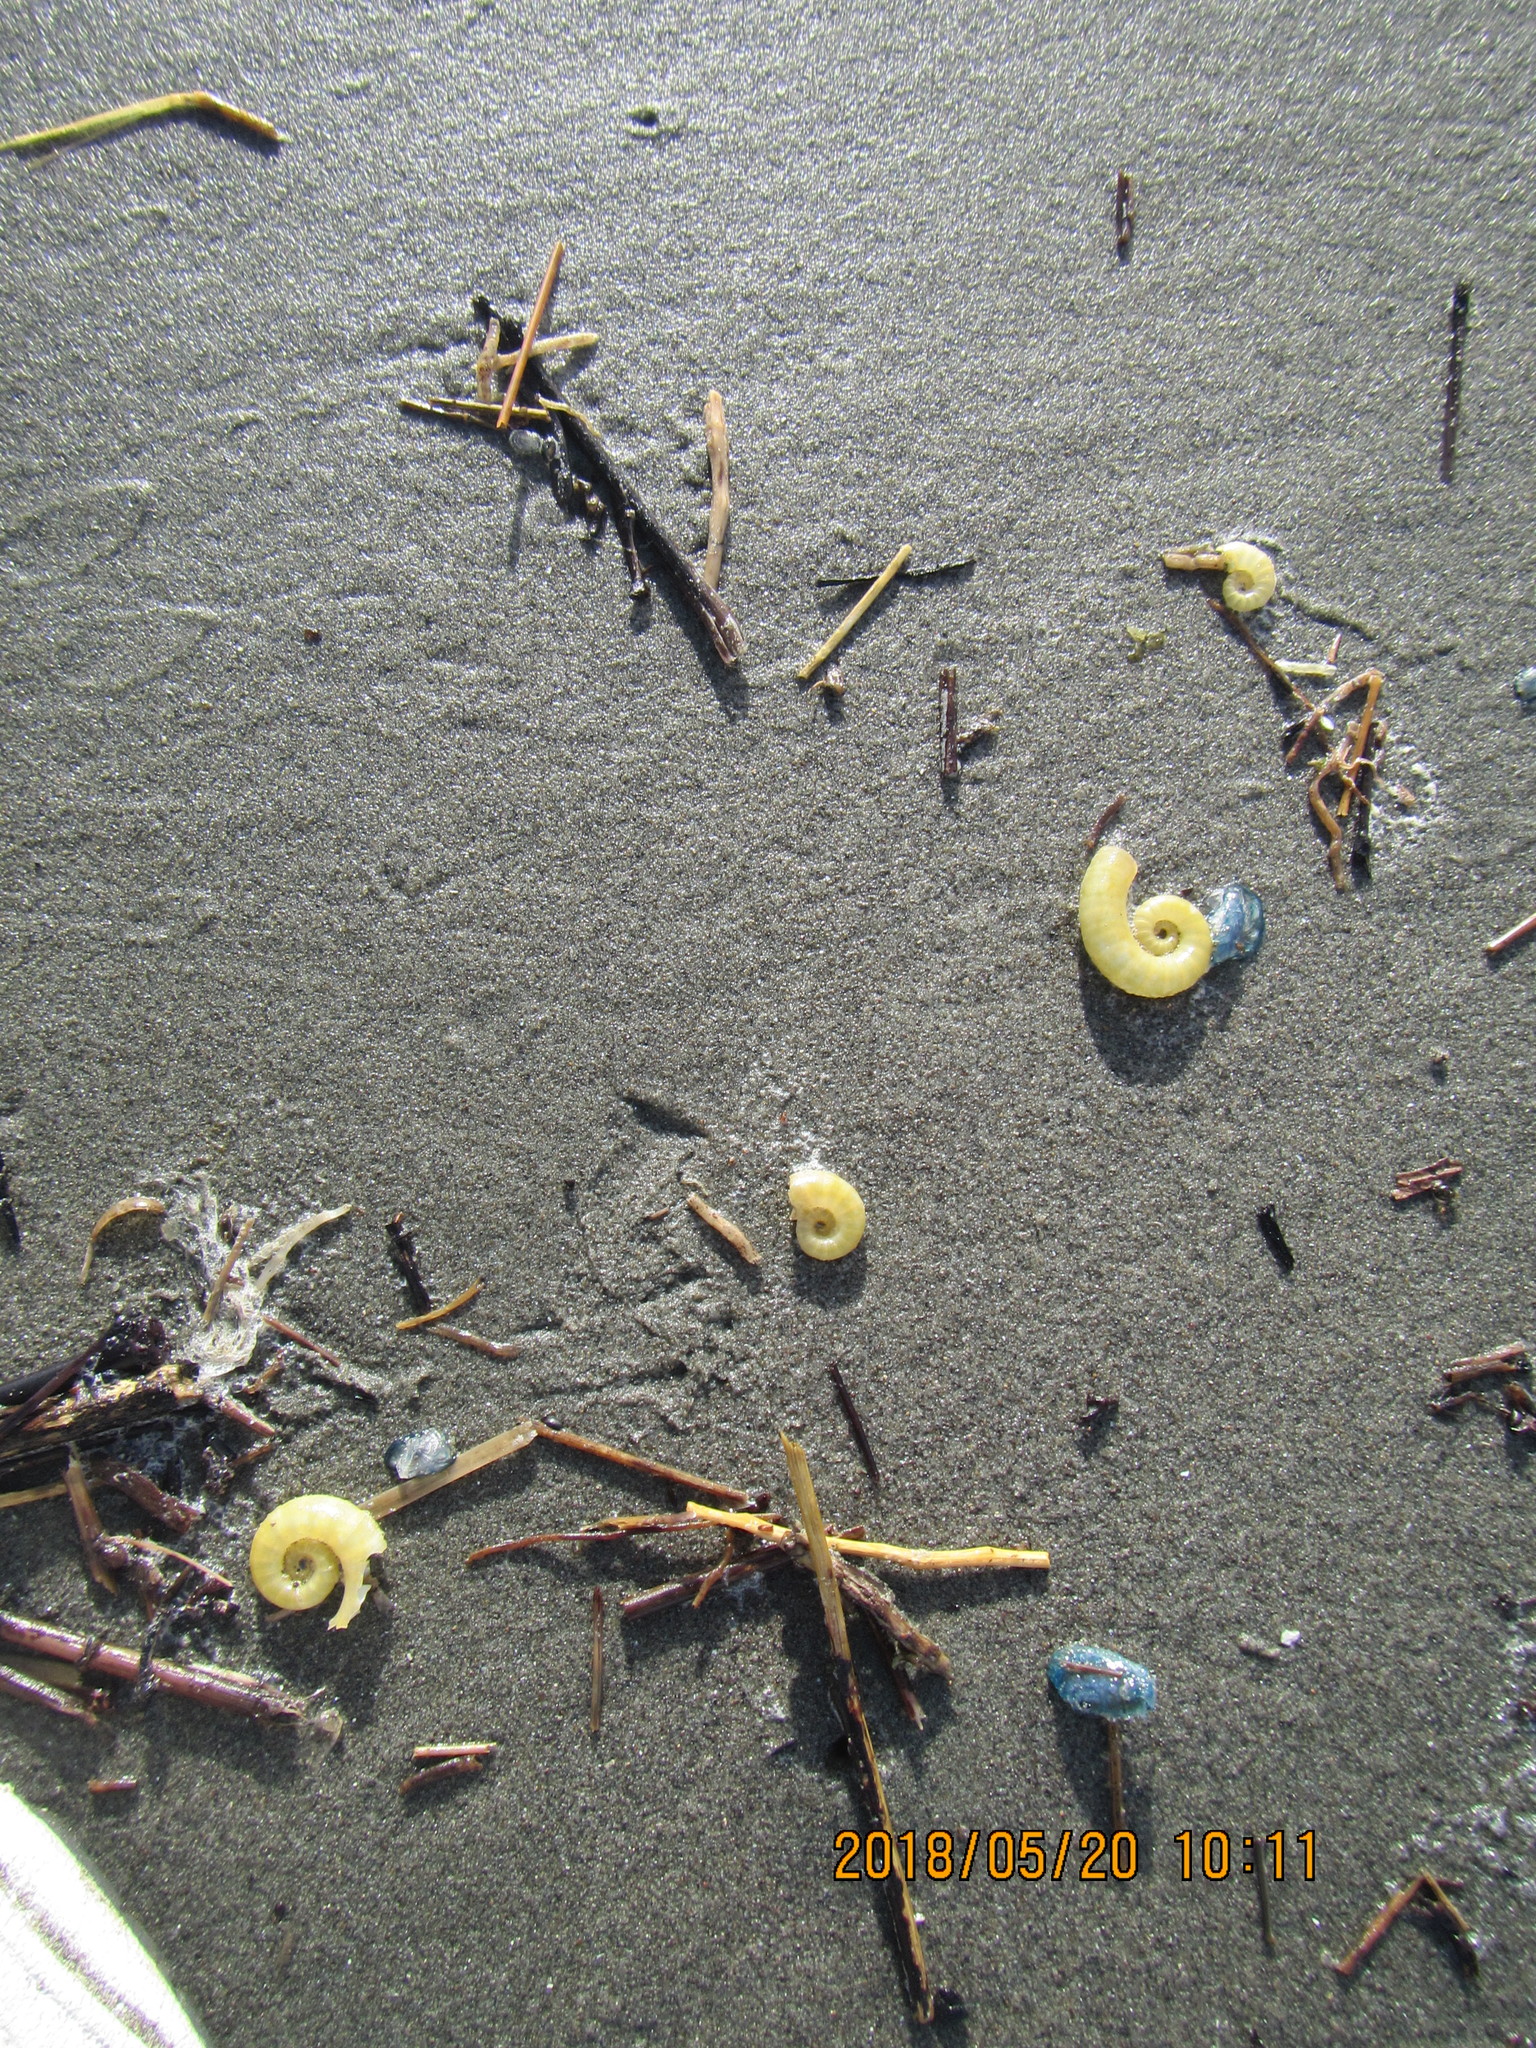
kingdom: Animalia
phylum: Cnidaria
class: Hydrozoa
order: Anthoathecata
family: Porpitidae
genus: Velella
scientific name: Velella velella
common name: By-the-wind-sailor
